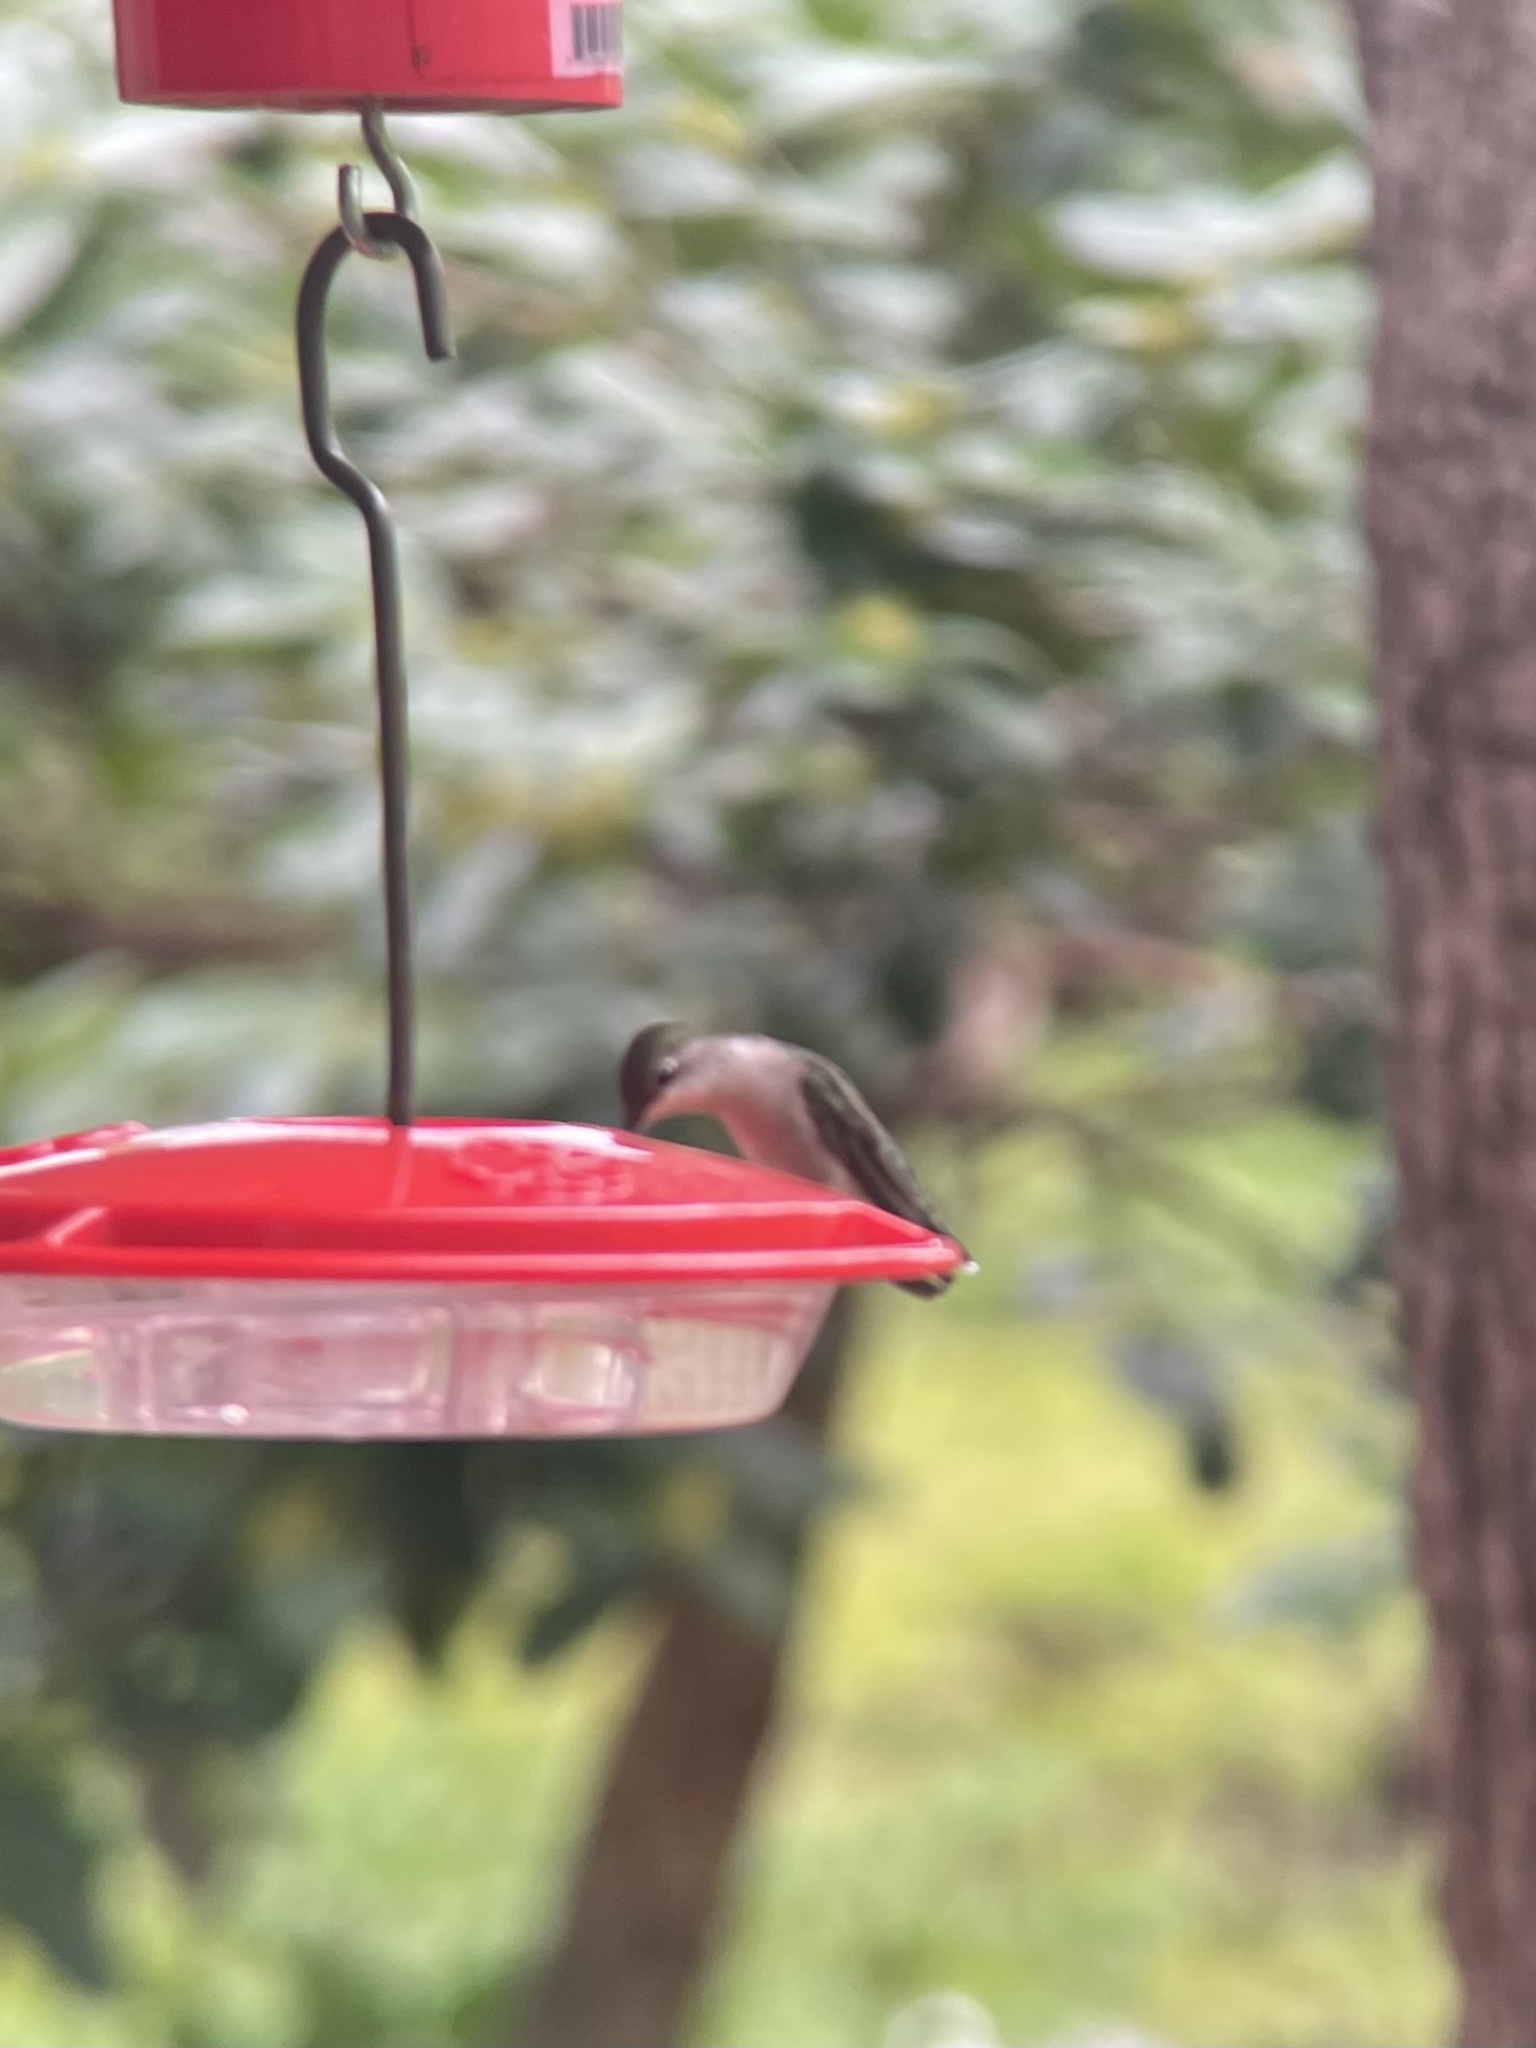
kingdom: Animalia
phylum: Chordata
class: Aves
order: Apodiformes
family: Trochilidae
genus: Archilochus
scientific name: Archilochus colubris
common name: Ruby-throated hummingbird
